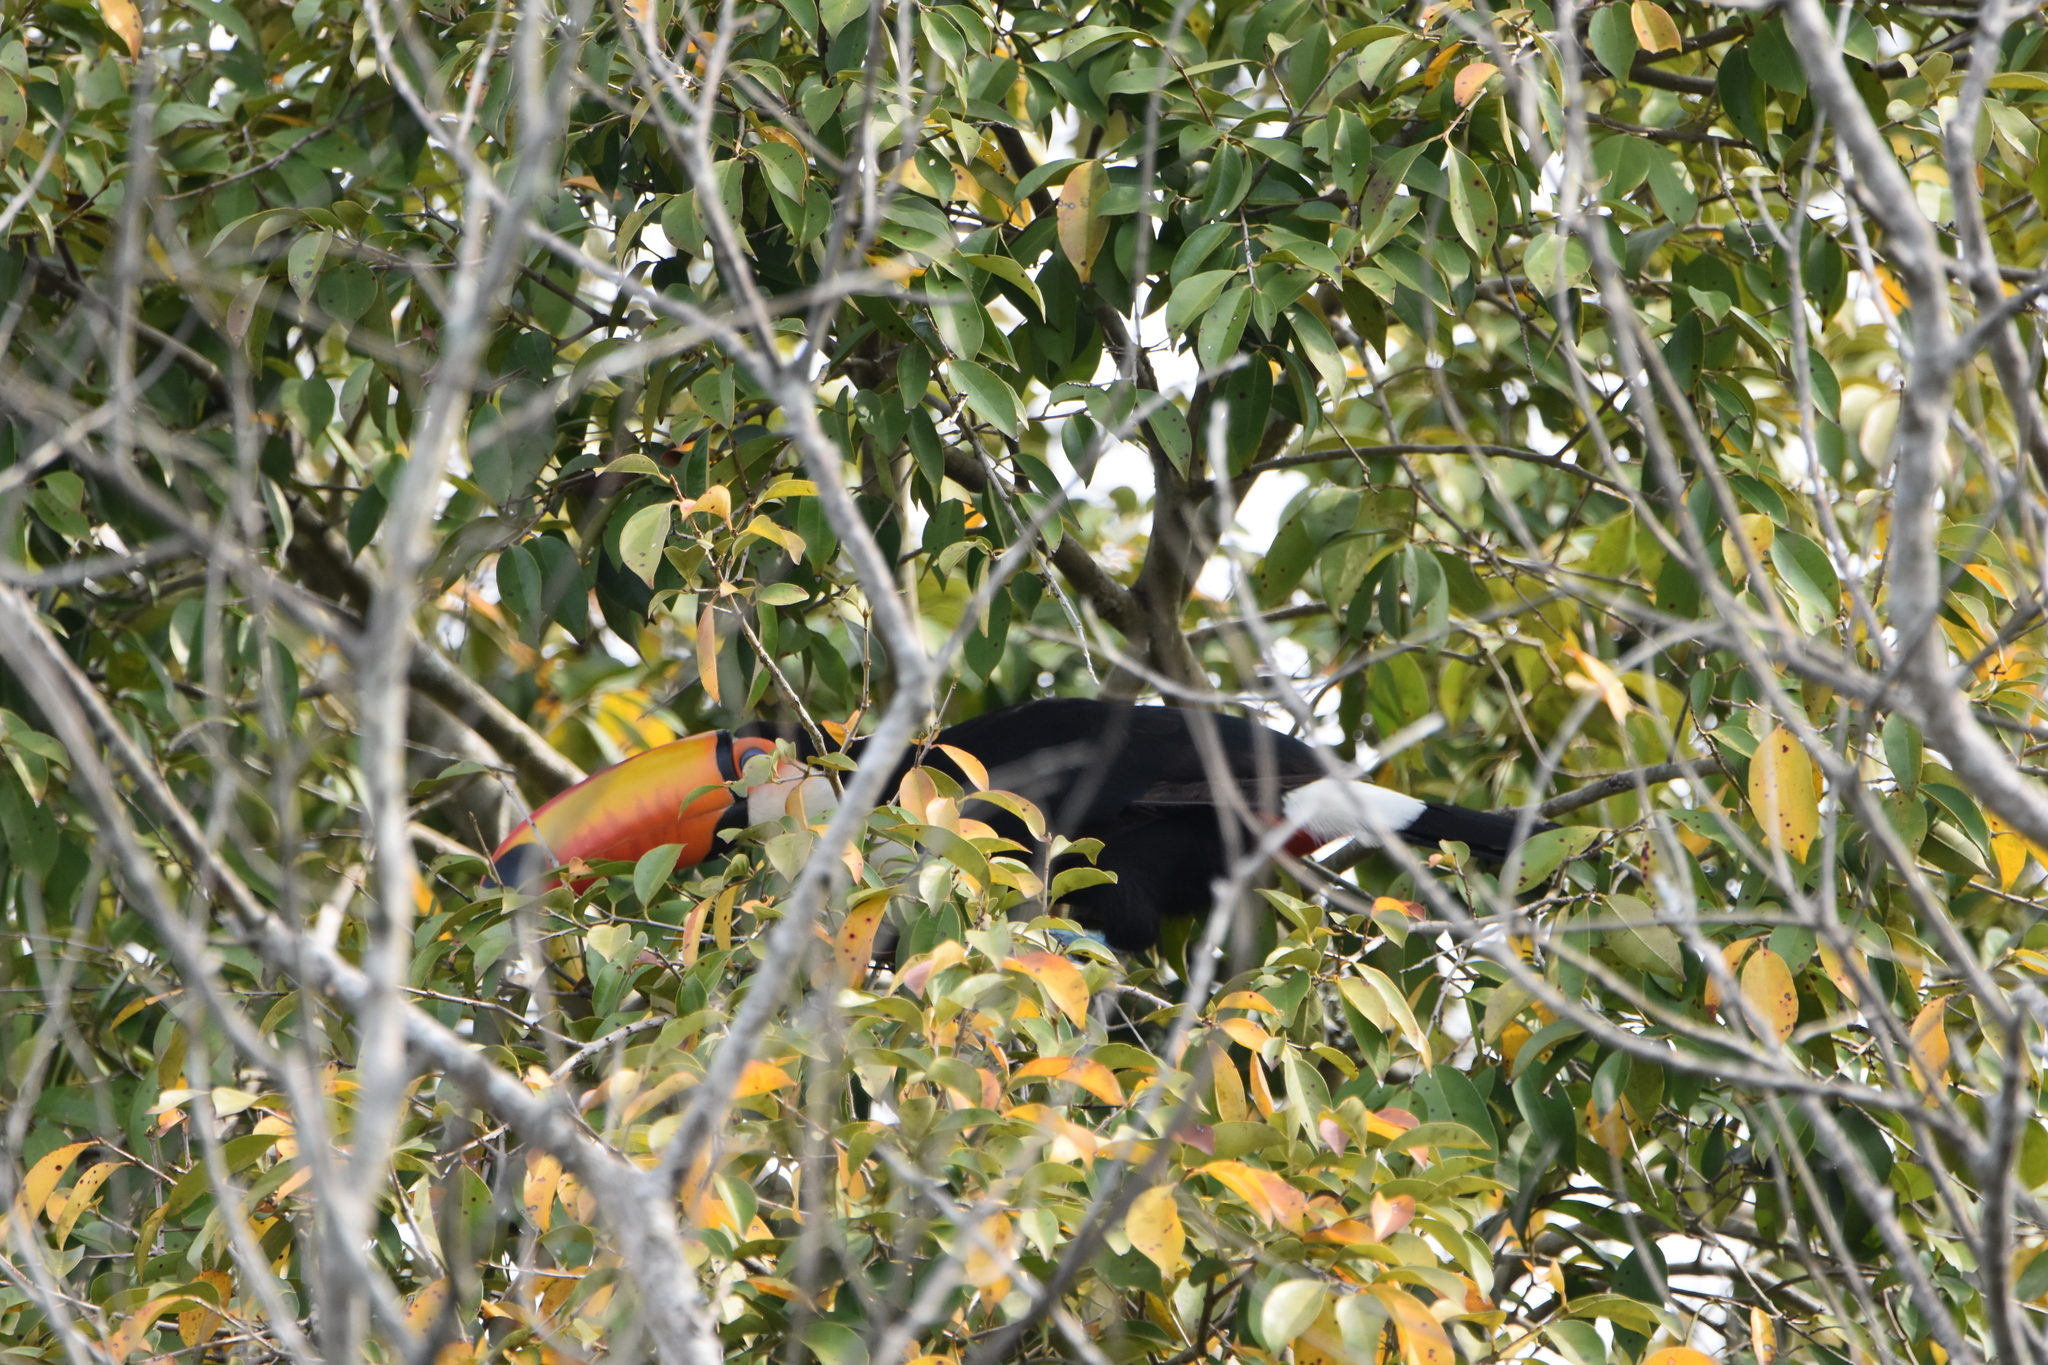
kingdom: Animalia
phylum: Chordata
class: Aves
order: Piciformes
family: Ramphastidae
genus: Ramphastos
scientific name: Ramphastos toco
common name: Toco toucan
